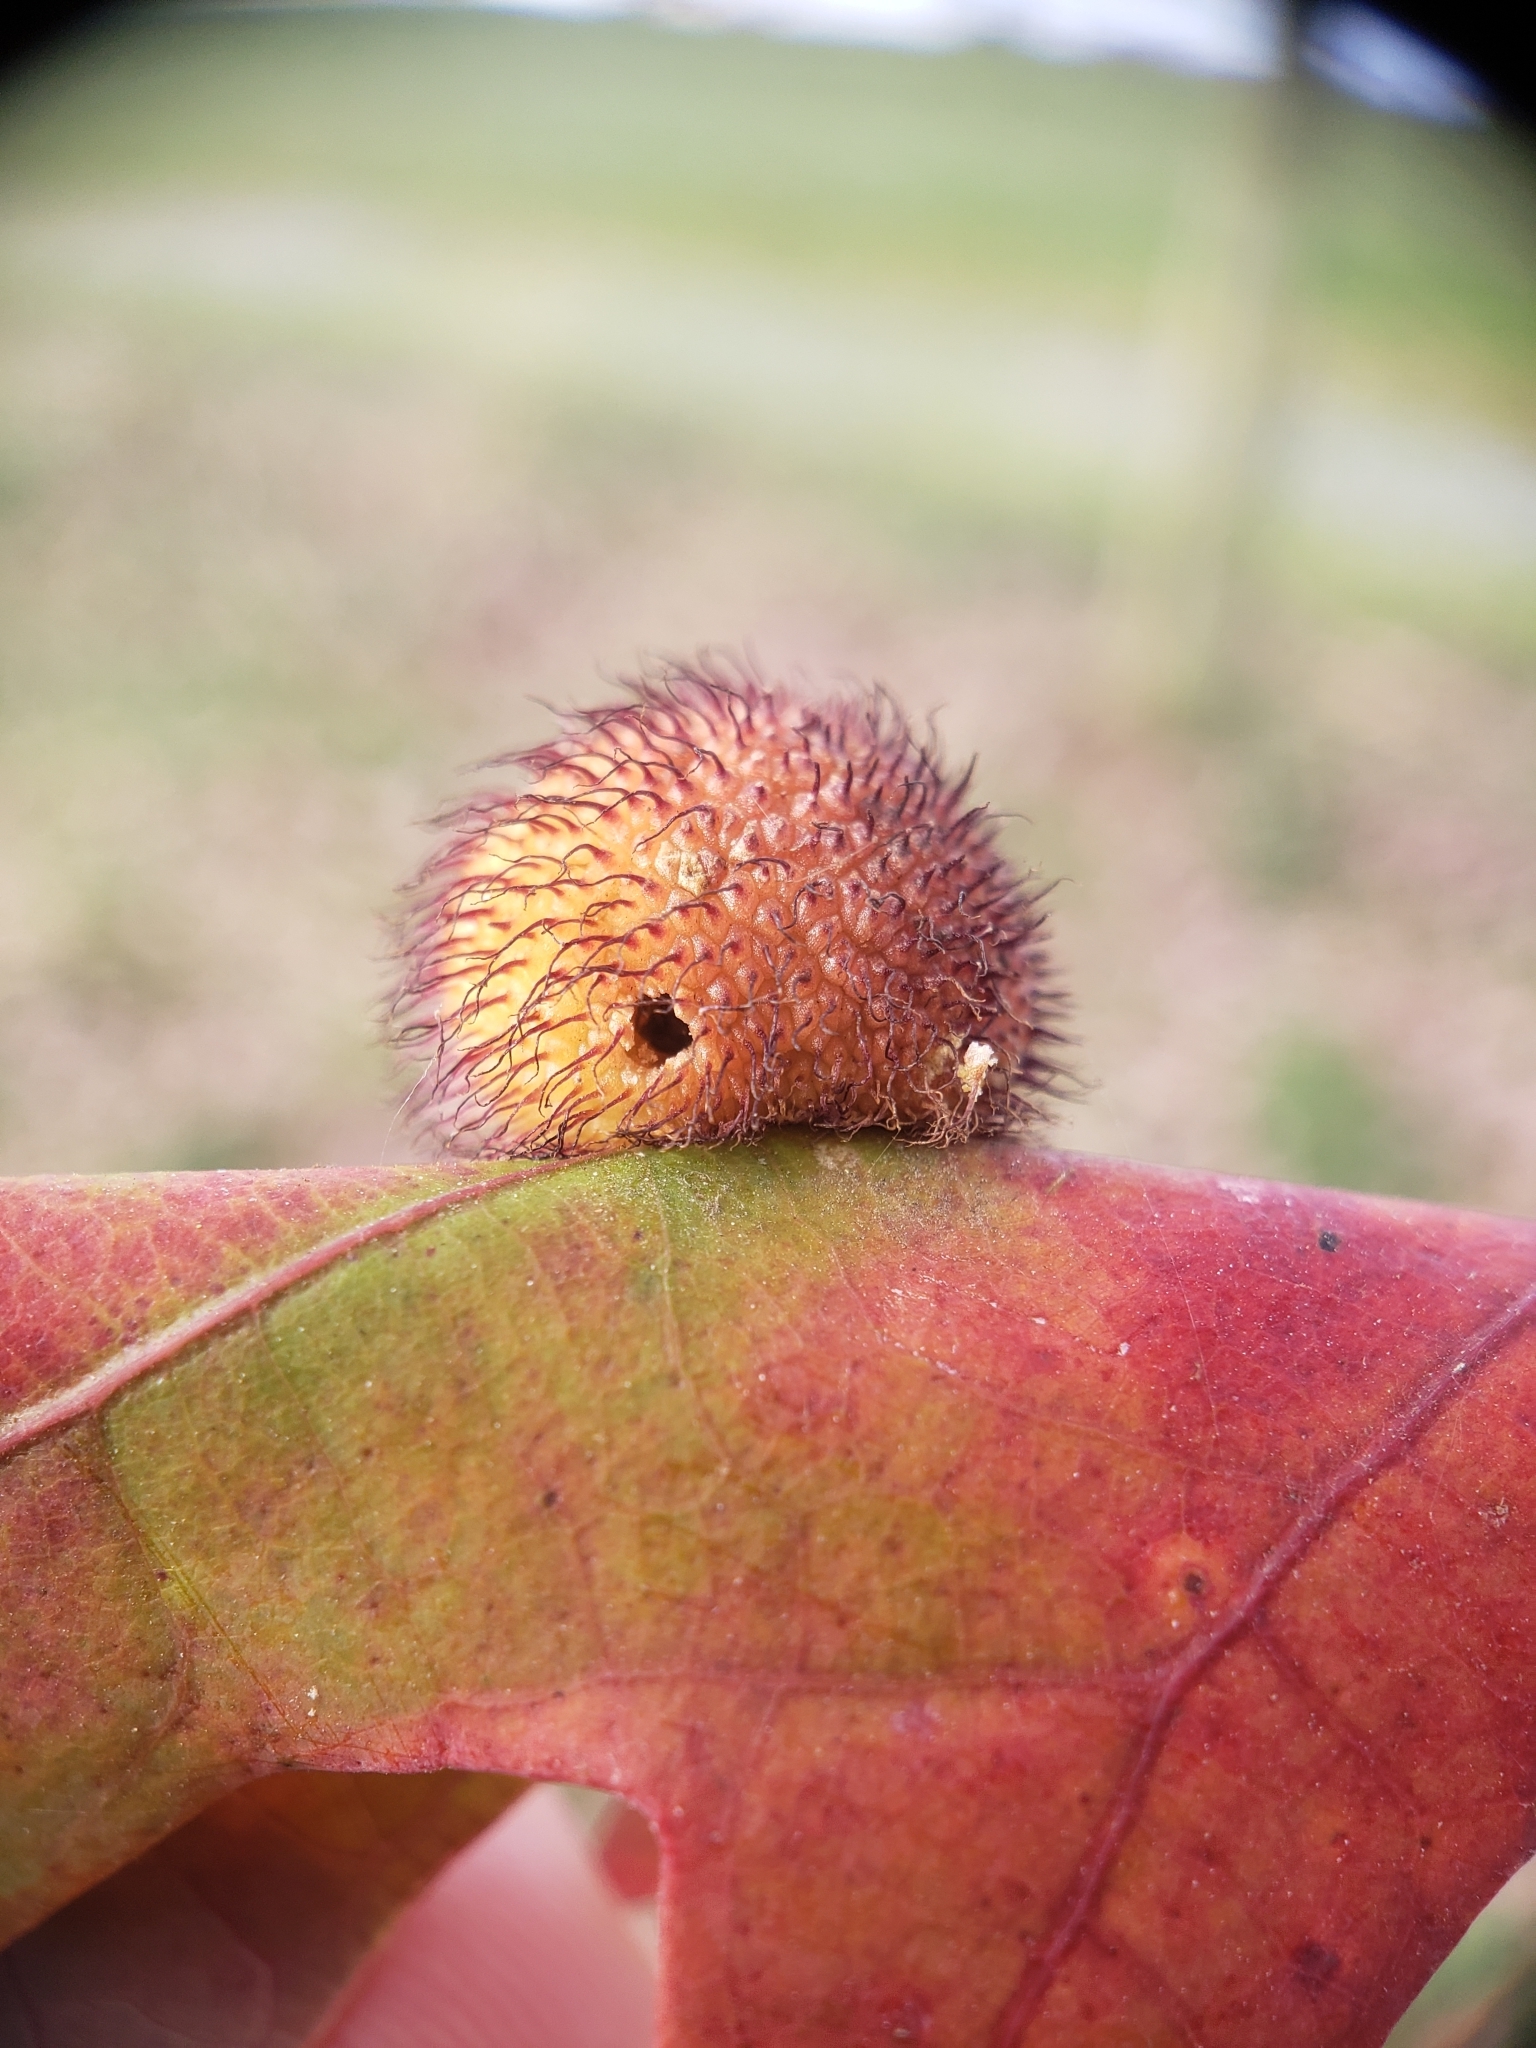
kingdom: Animalia
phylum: Arthropoda
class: Insecta
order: Hymenoptera
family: Cynipidae
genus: Acraspis
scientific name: Acraspis erinacei
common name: Hedgehog gall wasp
